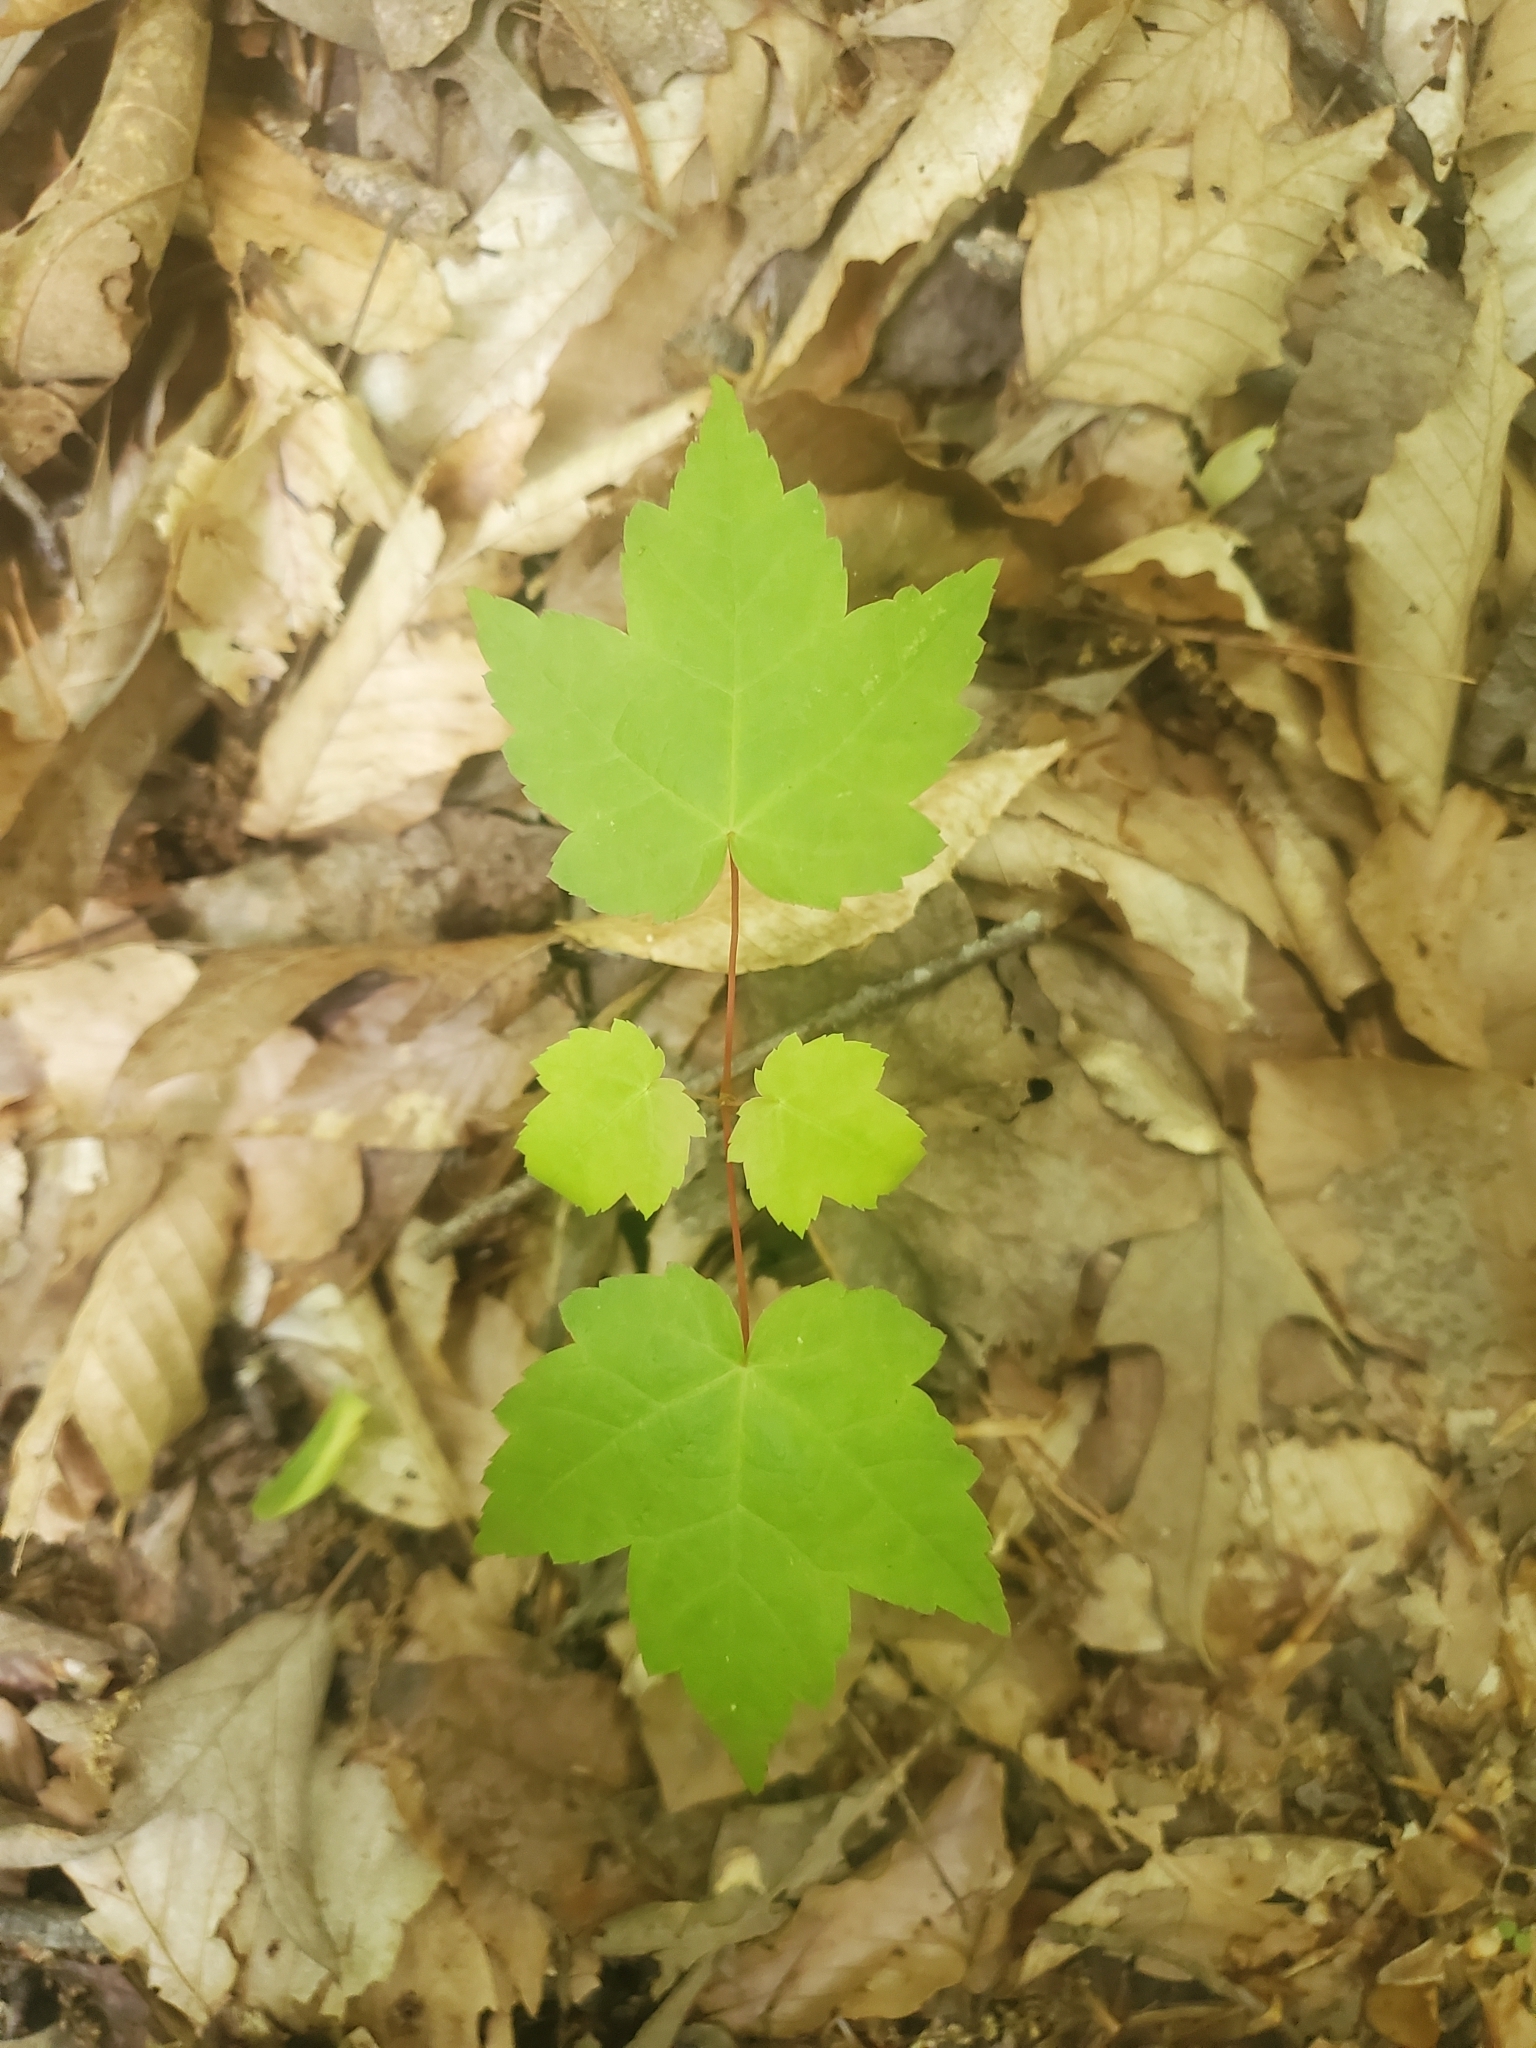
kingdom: Plantae
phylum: Tracheophyta
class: Magnoliopsida
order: Sapindales
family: Sapindaceae
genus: Acer
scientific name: Acer rubrum
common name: Red maple
